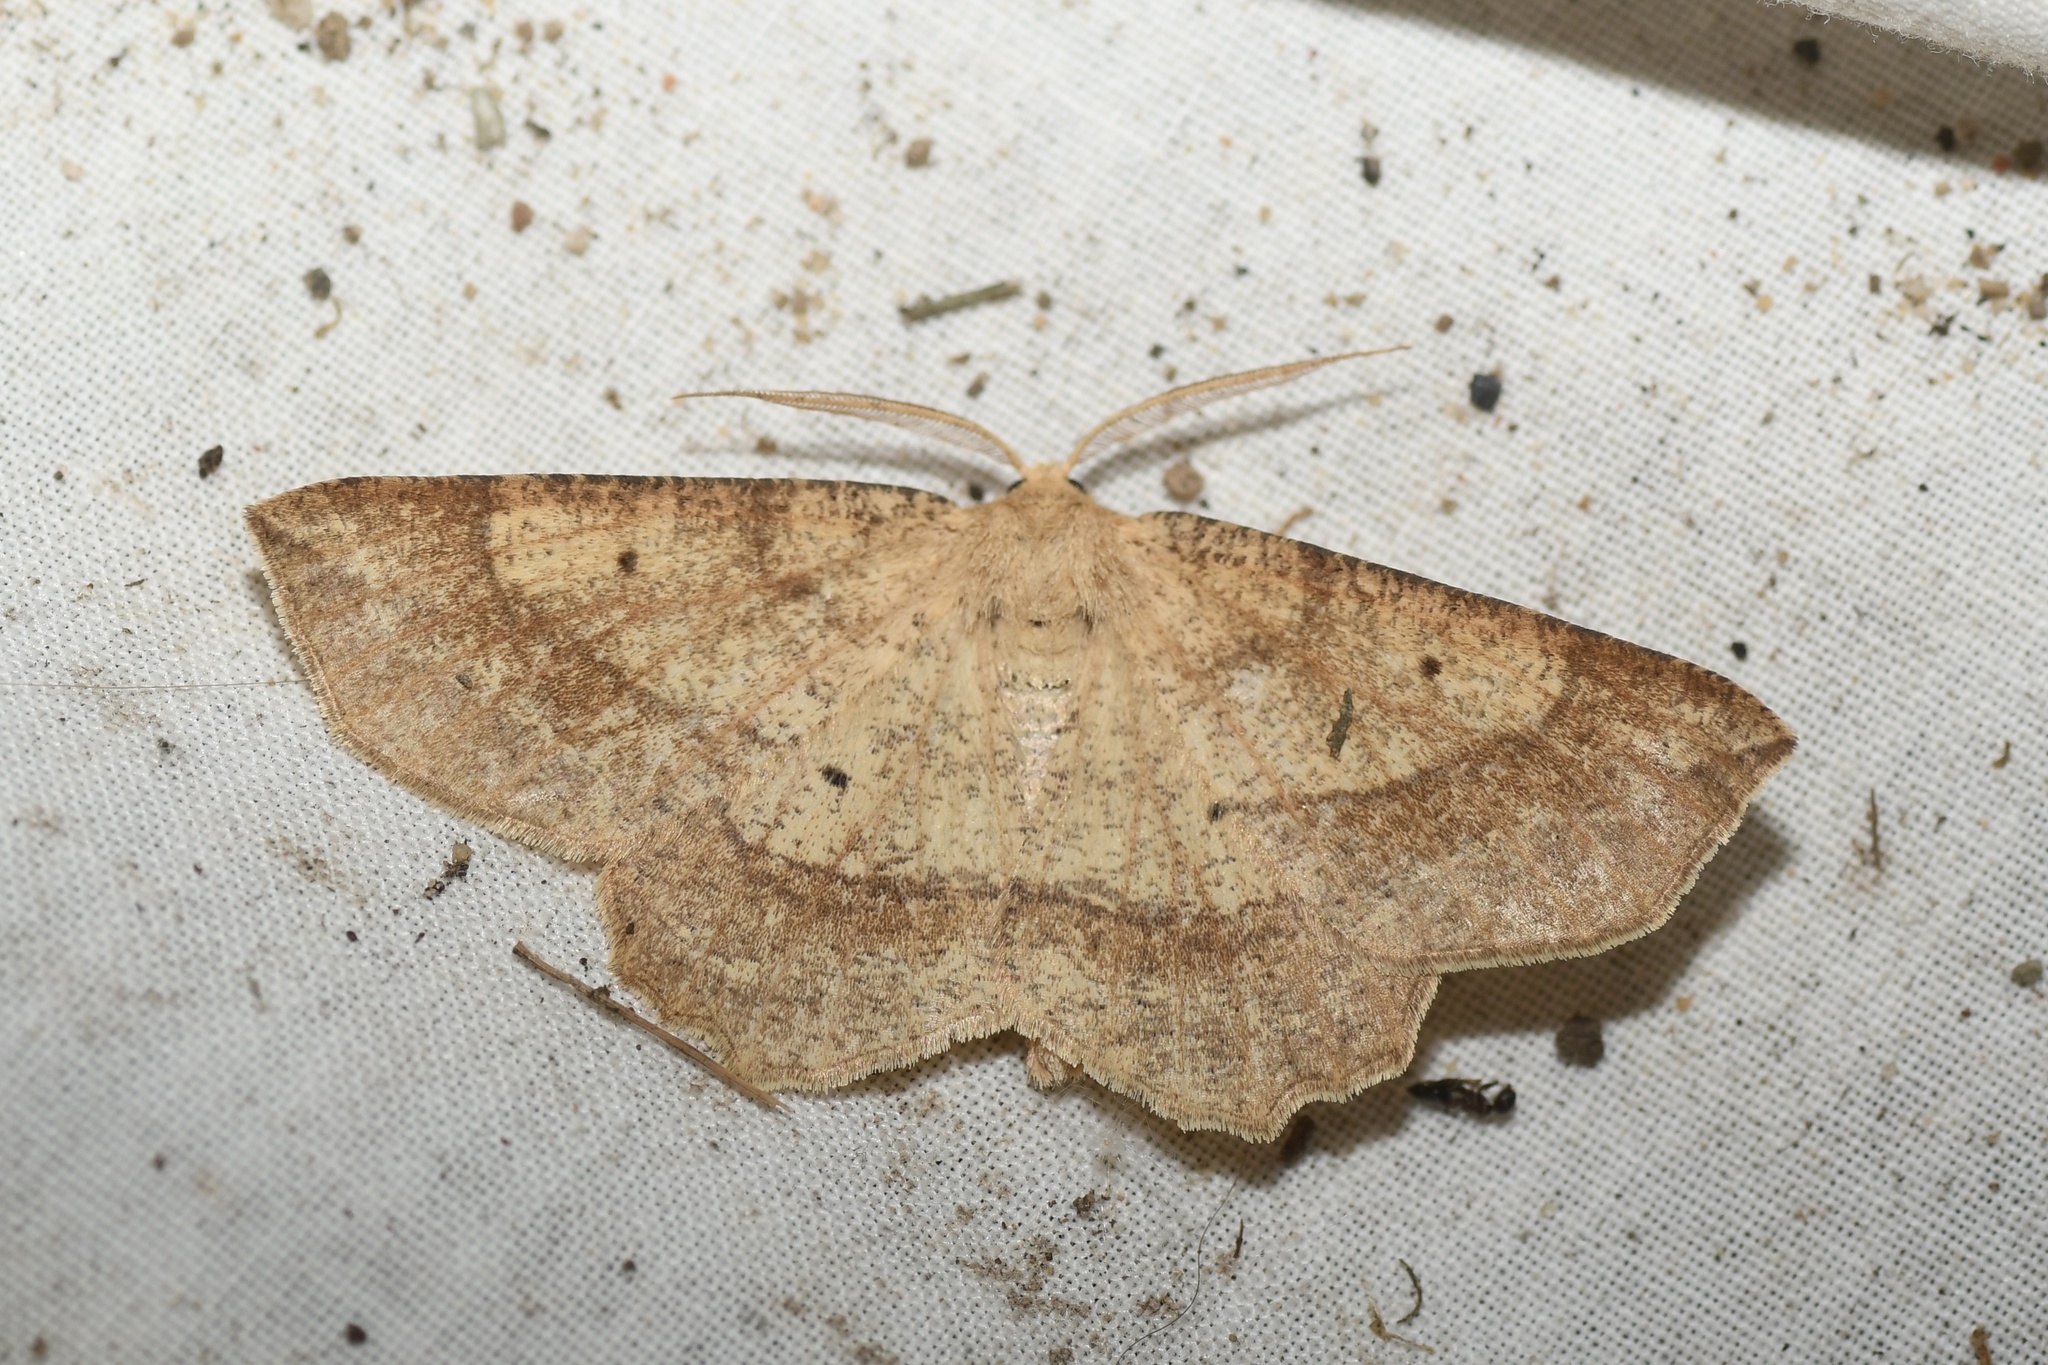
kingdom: Animalia
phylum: Arthropoda
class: Insecta
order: Lepidoptera
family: Geometridae
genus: Euchlaena
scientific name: Euchlaena marginaria
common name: Ochre euchlaena moth
